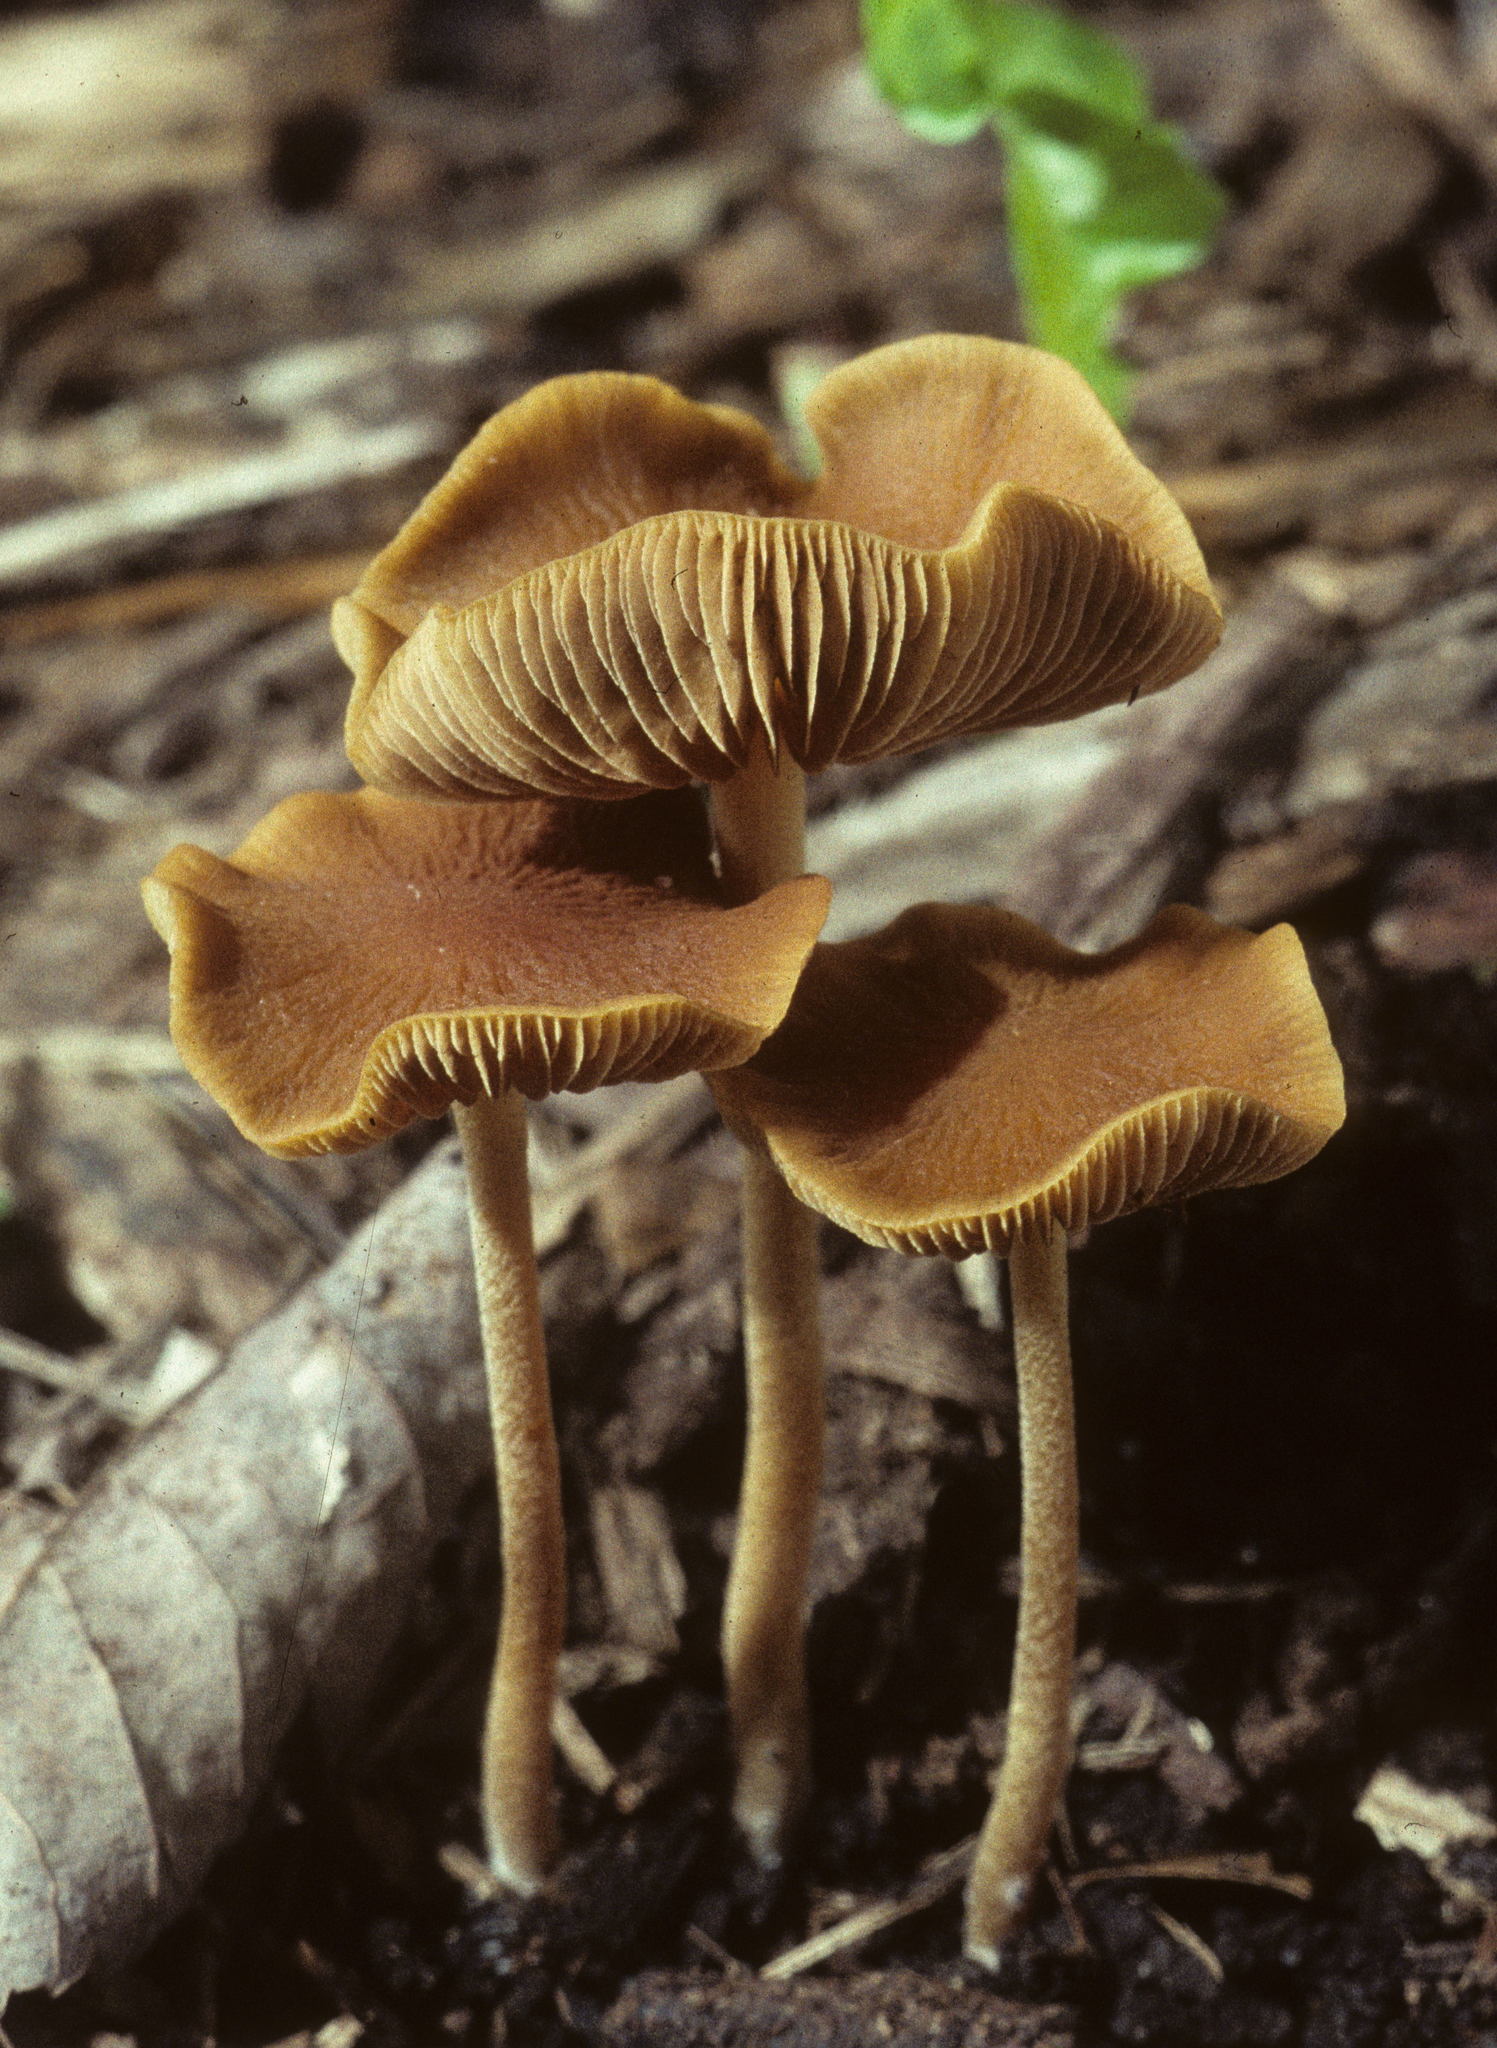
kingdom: Fungi
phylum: Basidiomycota
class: Agaricomycetes
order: Agaricales
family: Strophariaceae
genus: Agrocybe
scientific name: Agrocybe arvalis
